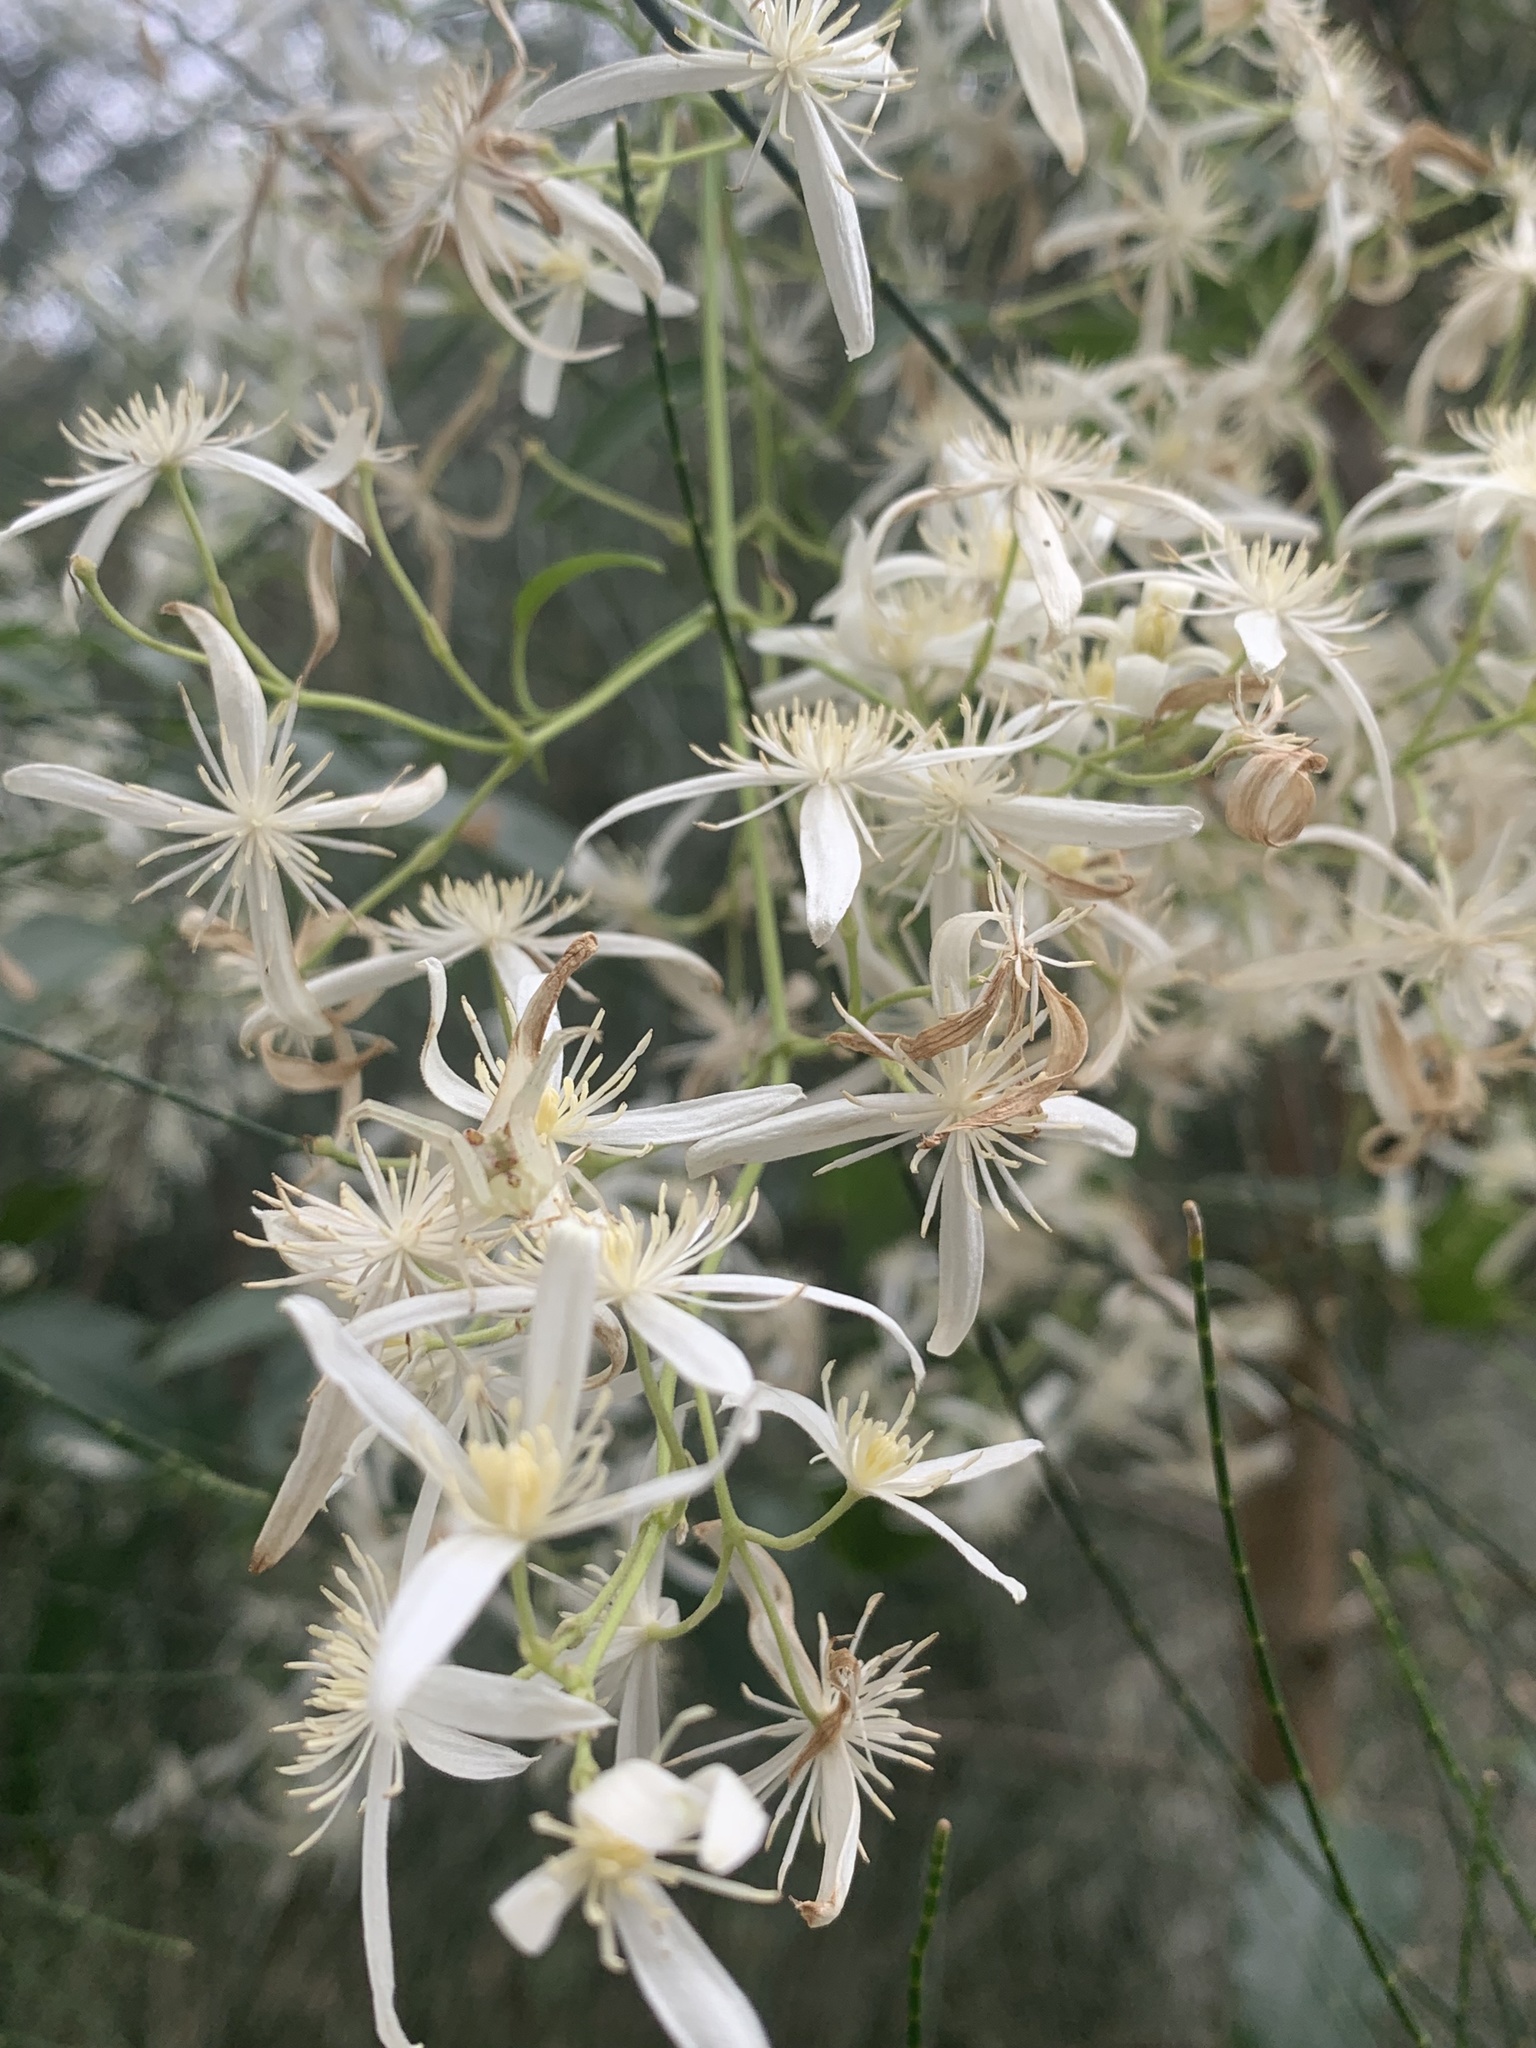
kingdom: Plantae
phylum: Tracheophyta
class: Magnoliopsida
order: Ranunculales
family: Ranunculaceae
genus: Clematis
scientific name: Clematis glycinoides
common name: Forest clematis
